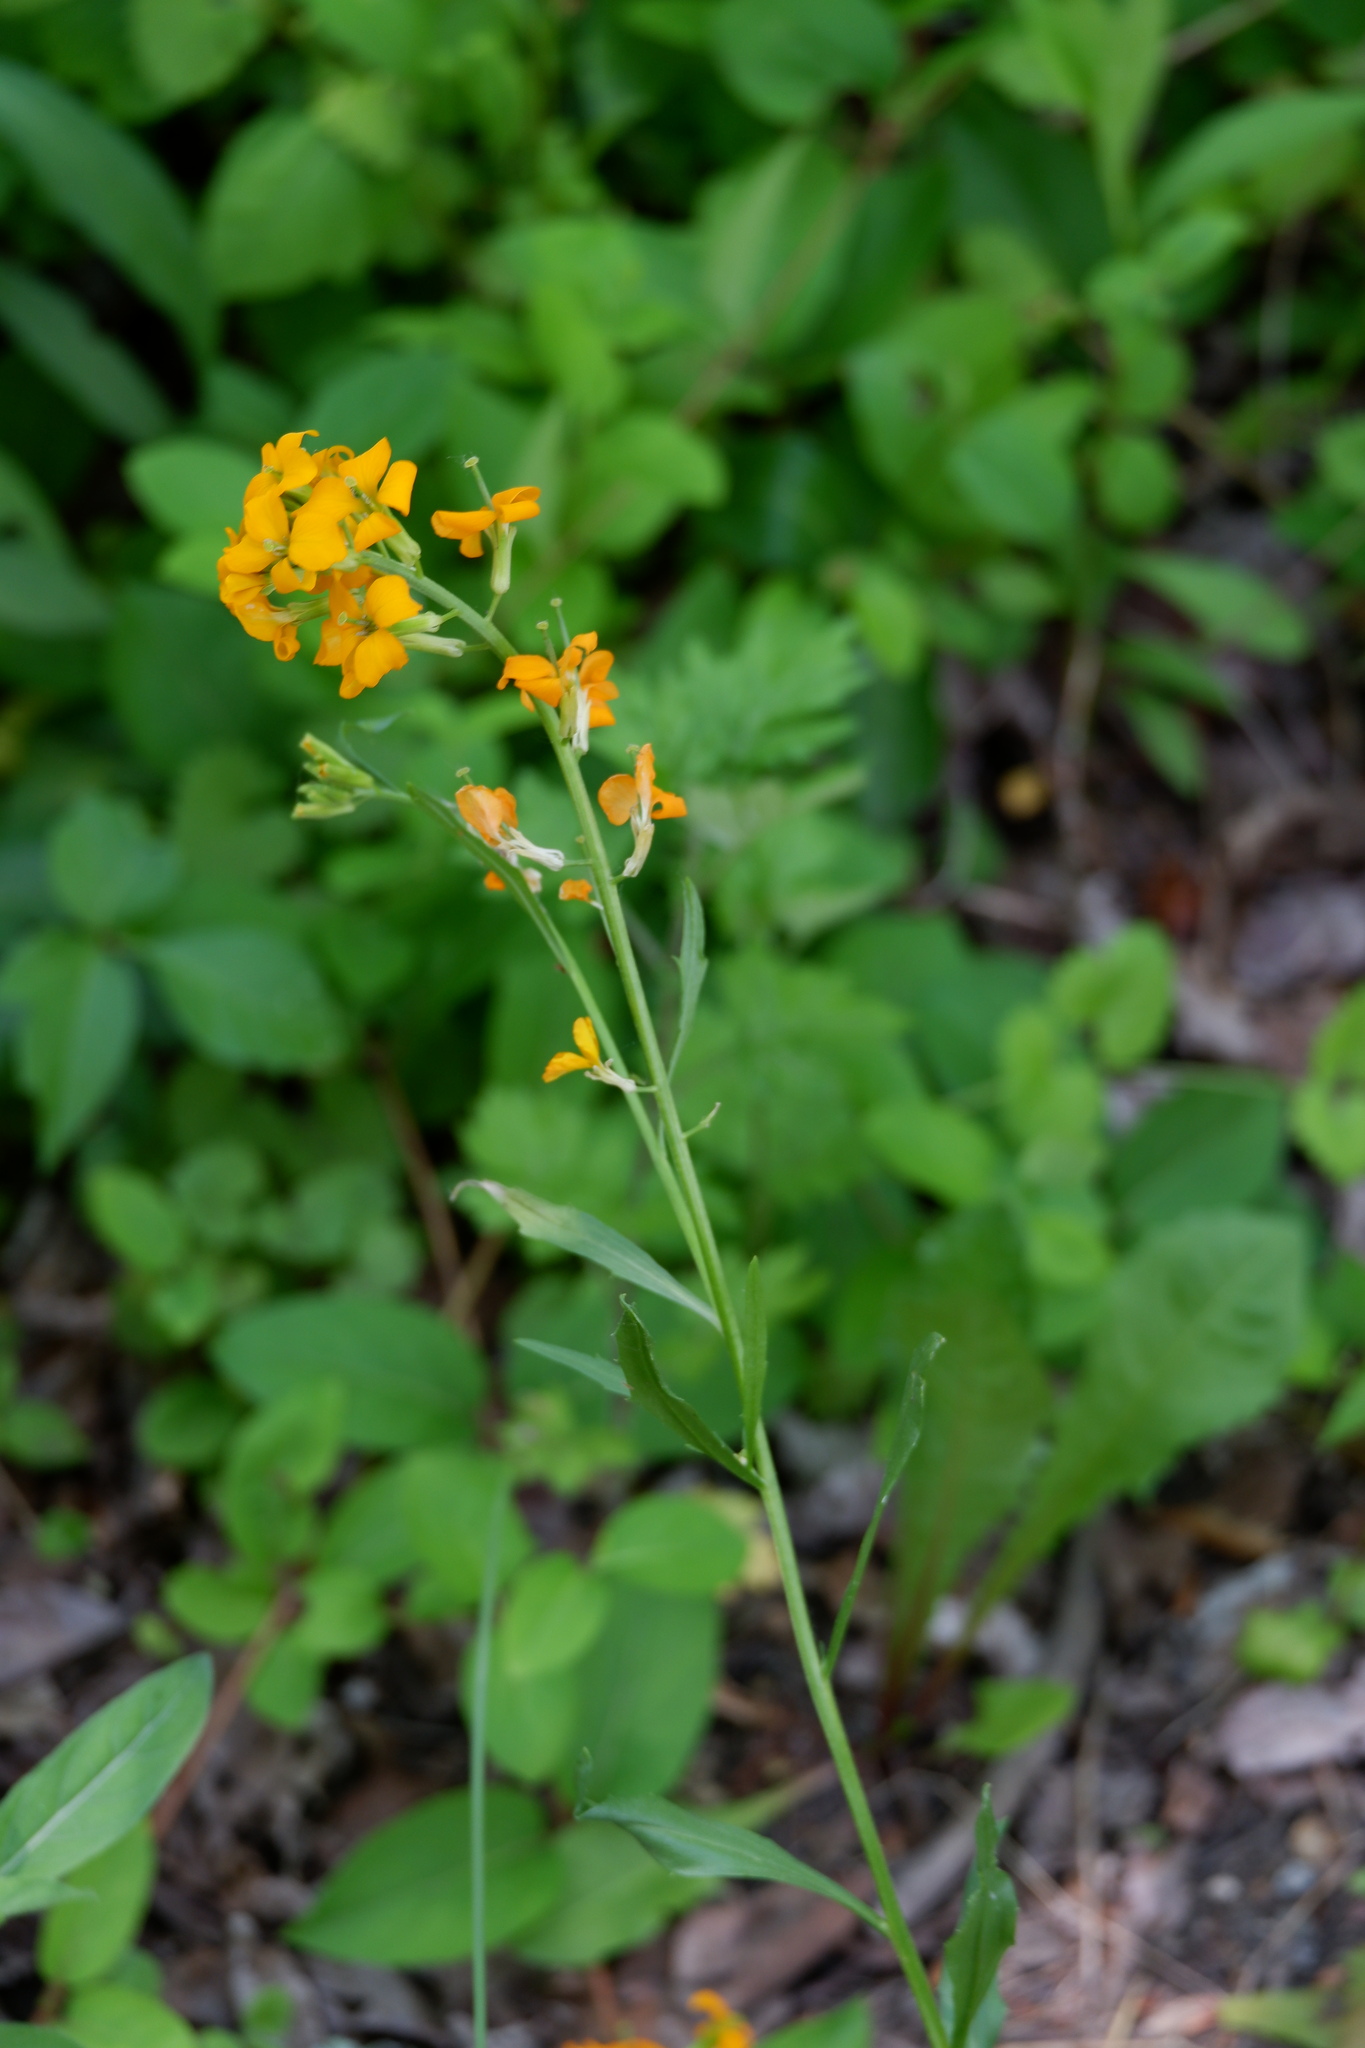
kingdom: Plantae
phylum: Tracheophyta
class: Magnoliopsida
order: Brassicales
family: Brassicaceae
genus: Erysimum
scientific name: Erysimum capitatum
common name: Western wallflower
